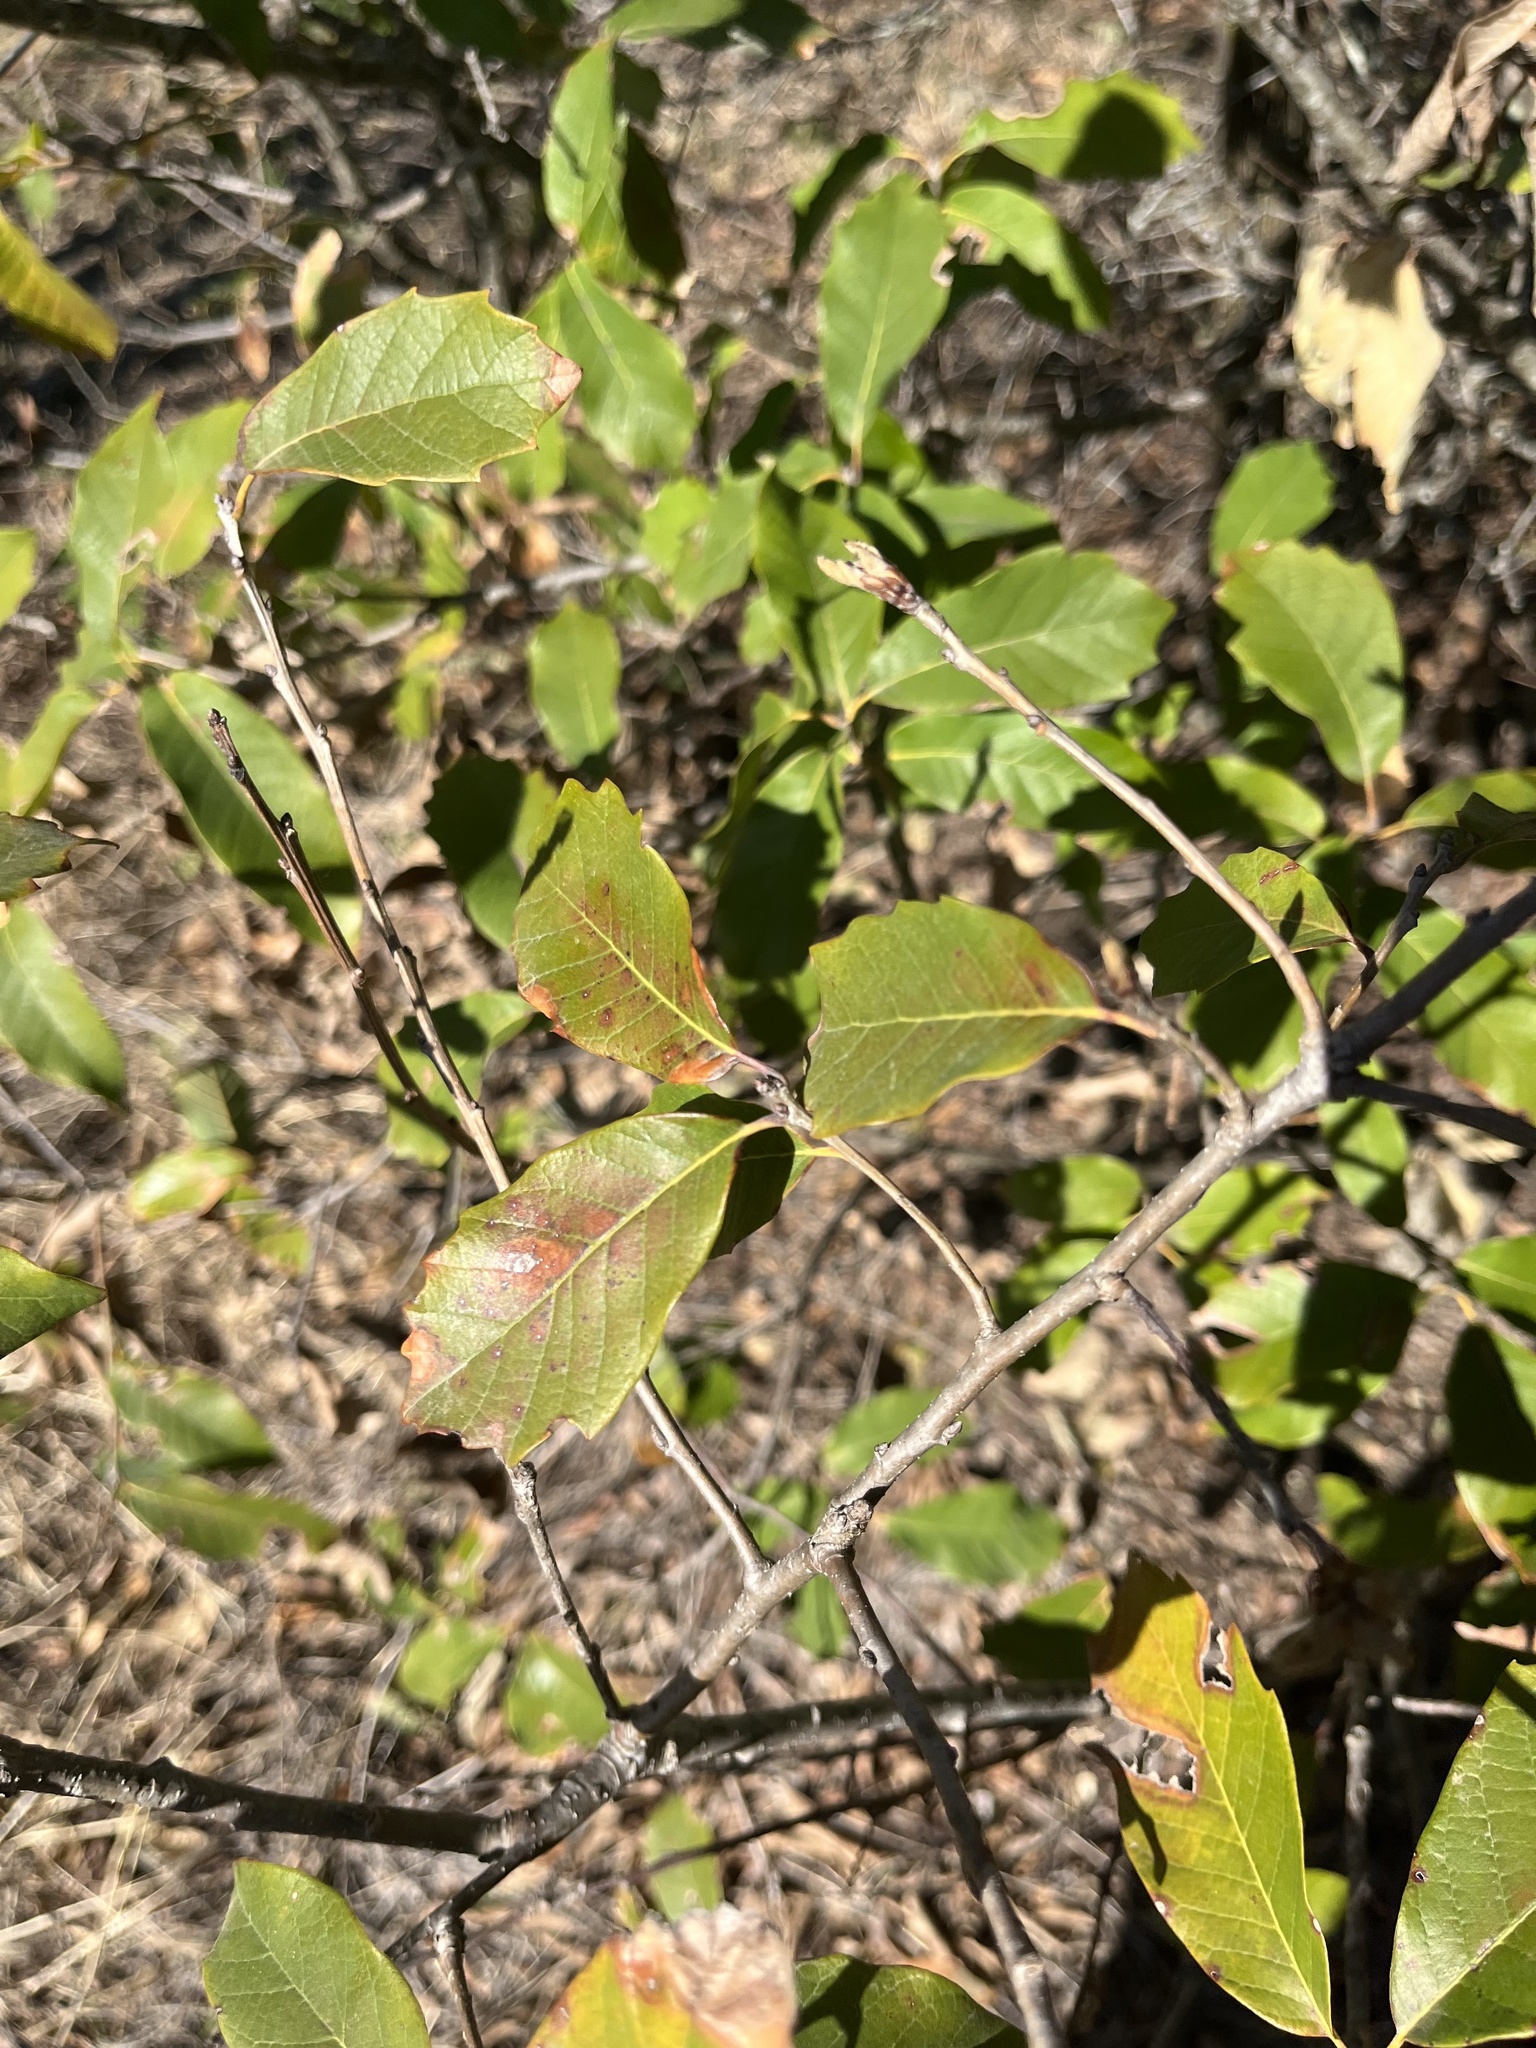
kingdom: Plantae
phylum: Tracheophyta
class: Magnoliopsida
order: Fagales
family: Fagaceae
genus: Quercus
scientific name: Quercus polymorpha
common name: Mexican white oak
